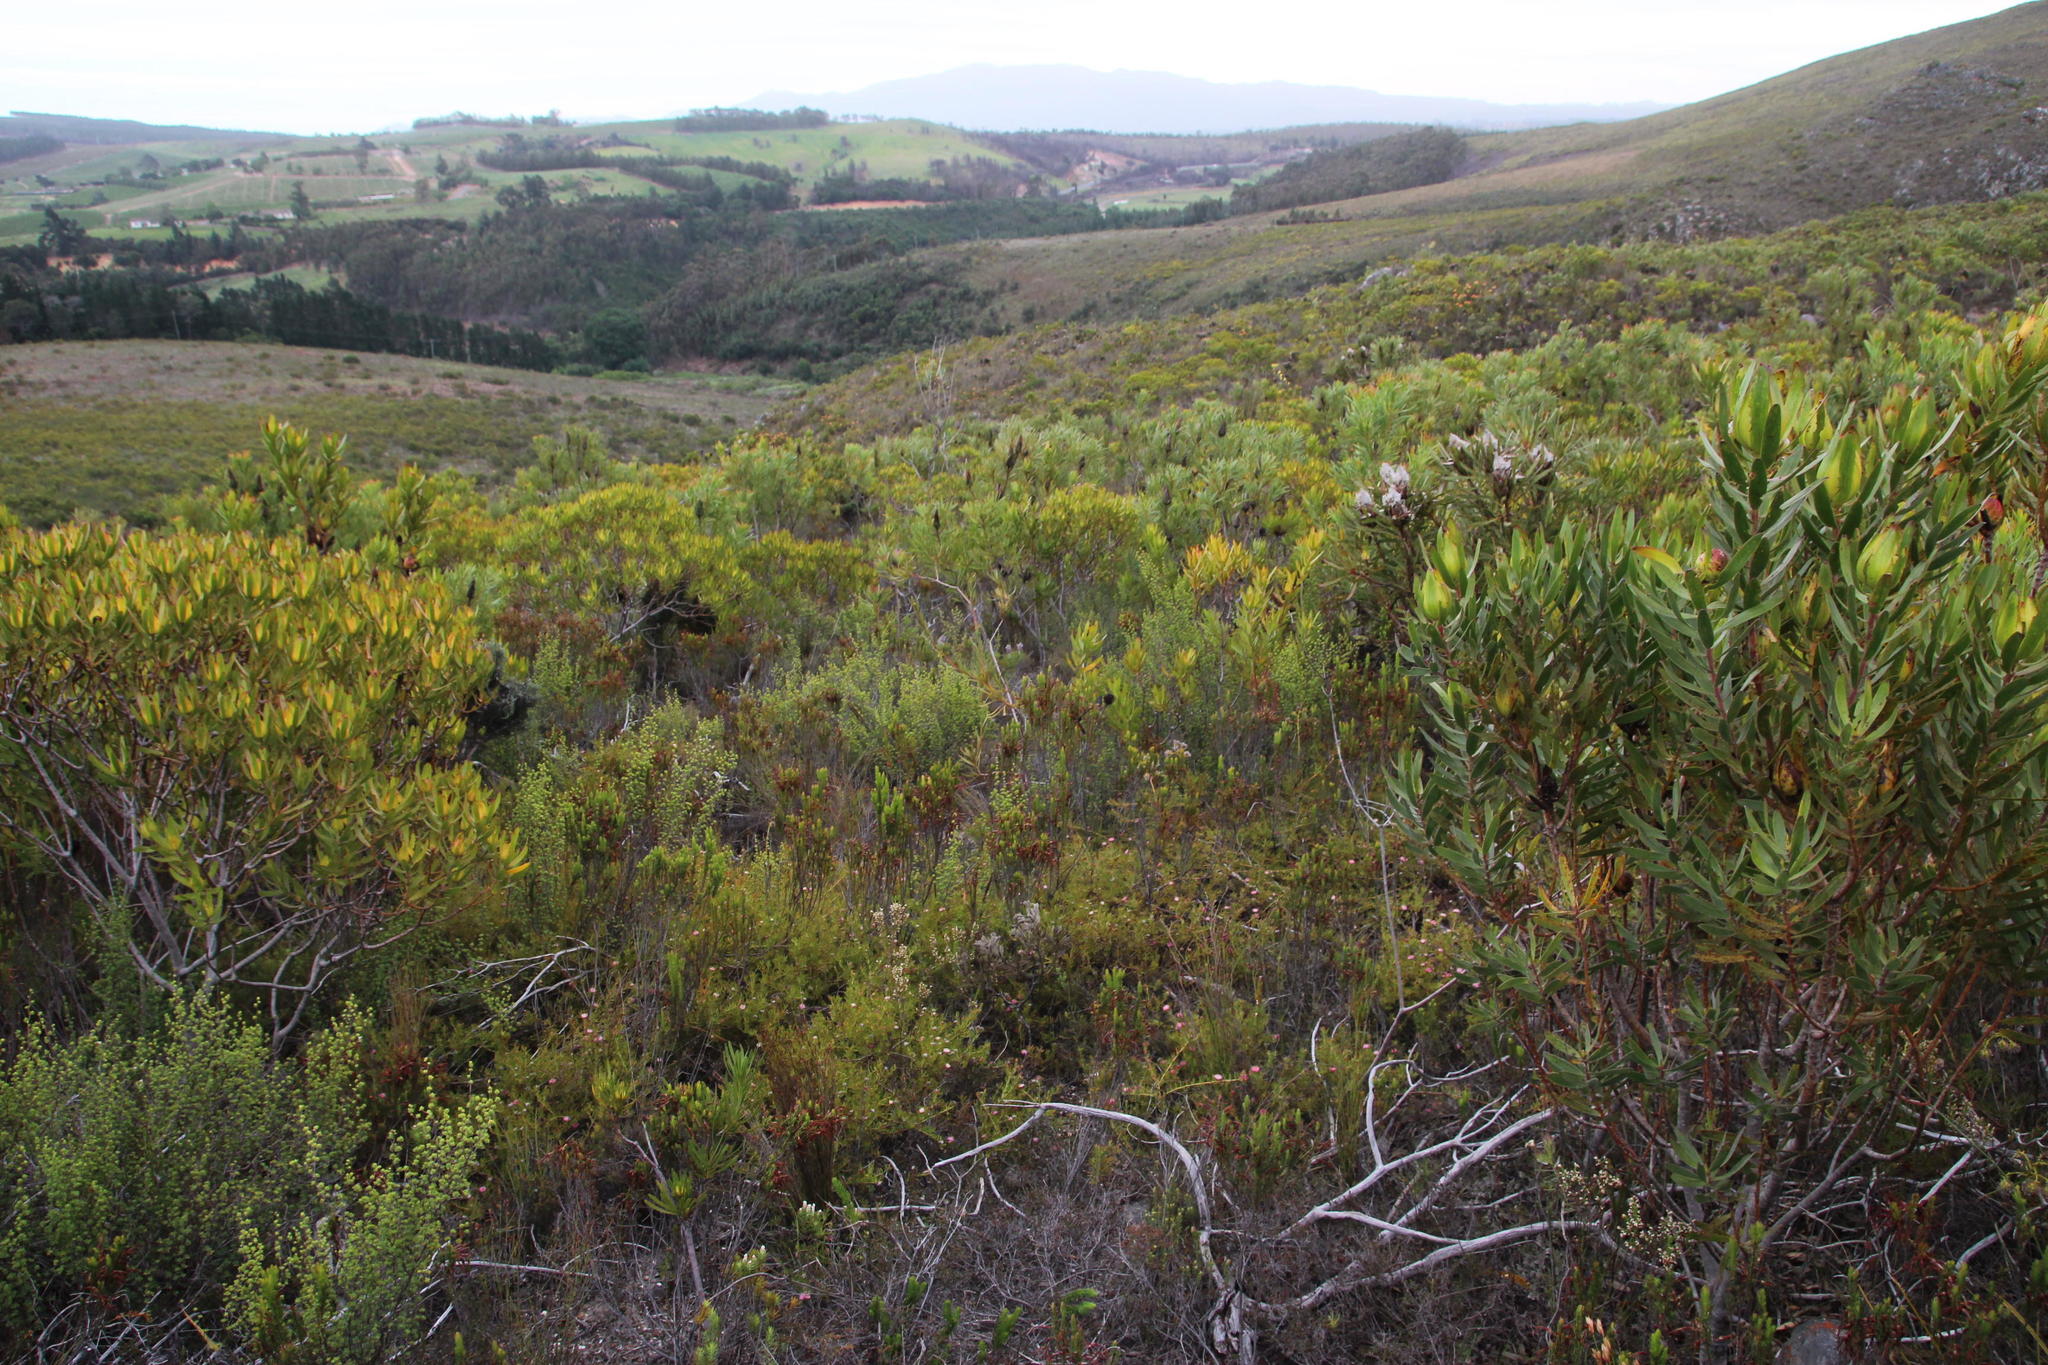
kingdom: Plantae
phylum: Tracheophyta
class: Magnoliopsida
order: Proteales
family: Proteaceae
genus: Diastella
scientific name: Diastella divaricata
